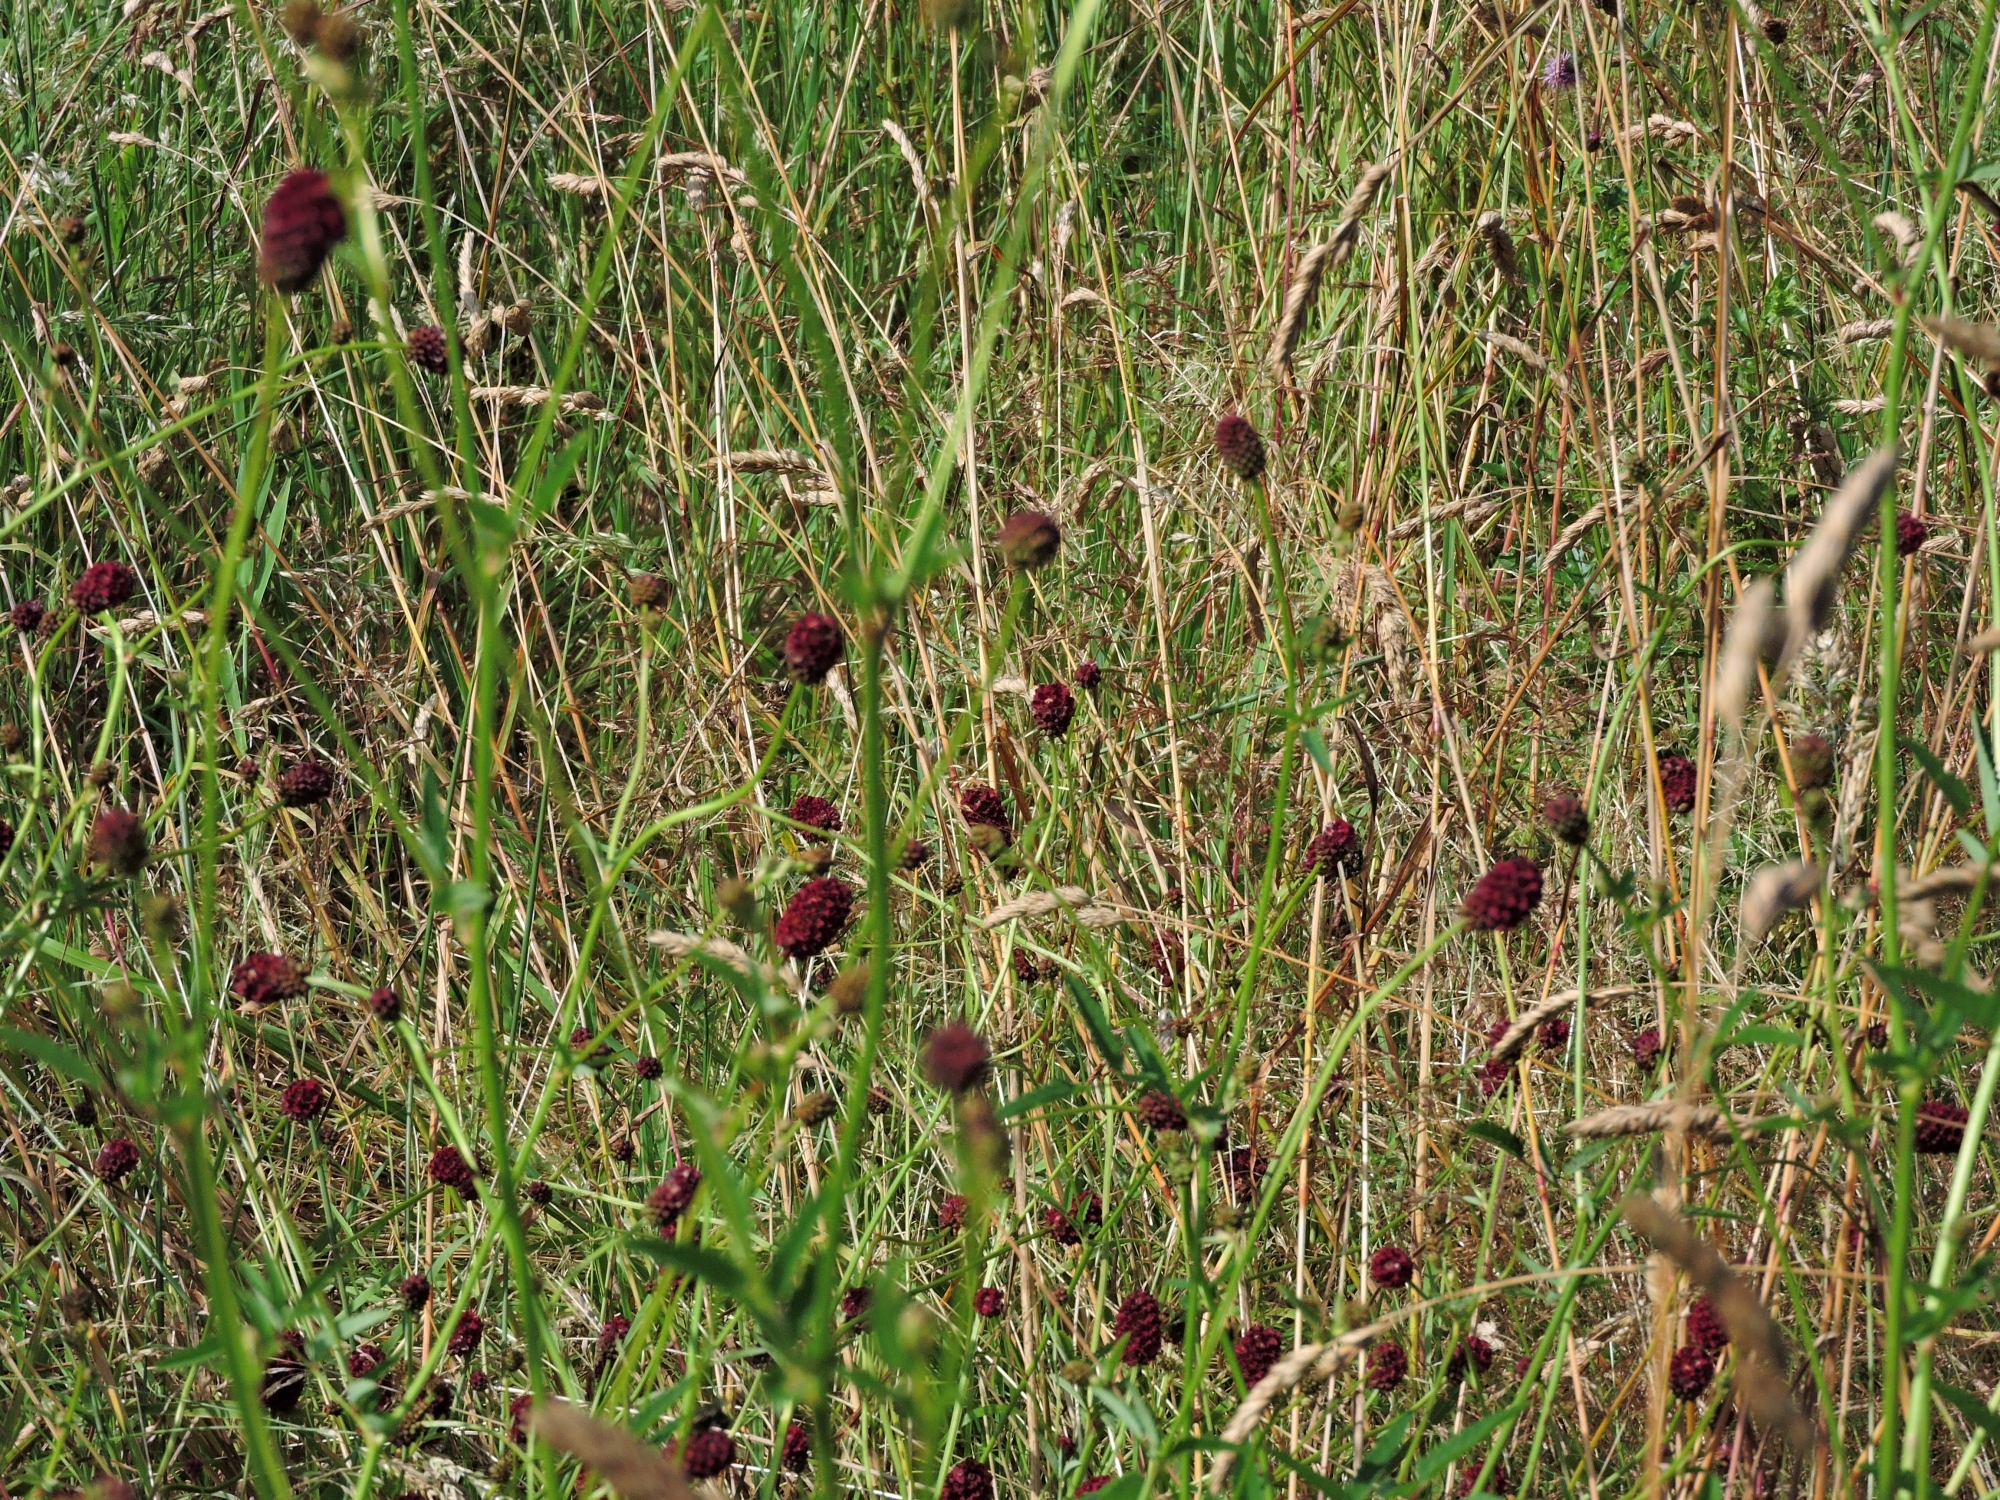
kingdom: Plantae
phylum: Tracheophyta
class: Magnoliopsida
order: Rosales
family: Rosaceae
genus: Sanguisorba
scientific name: Sanguisorba officinalis
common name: Great burnet
